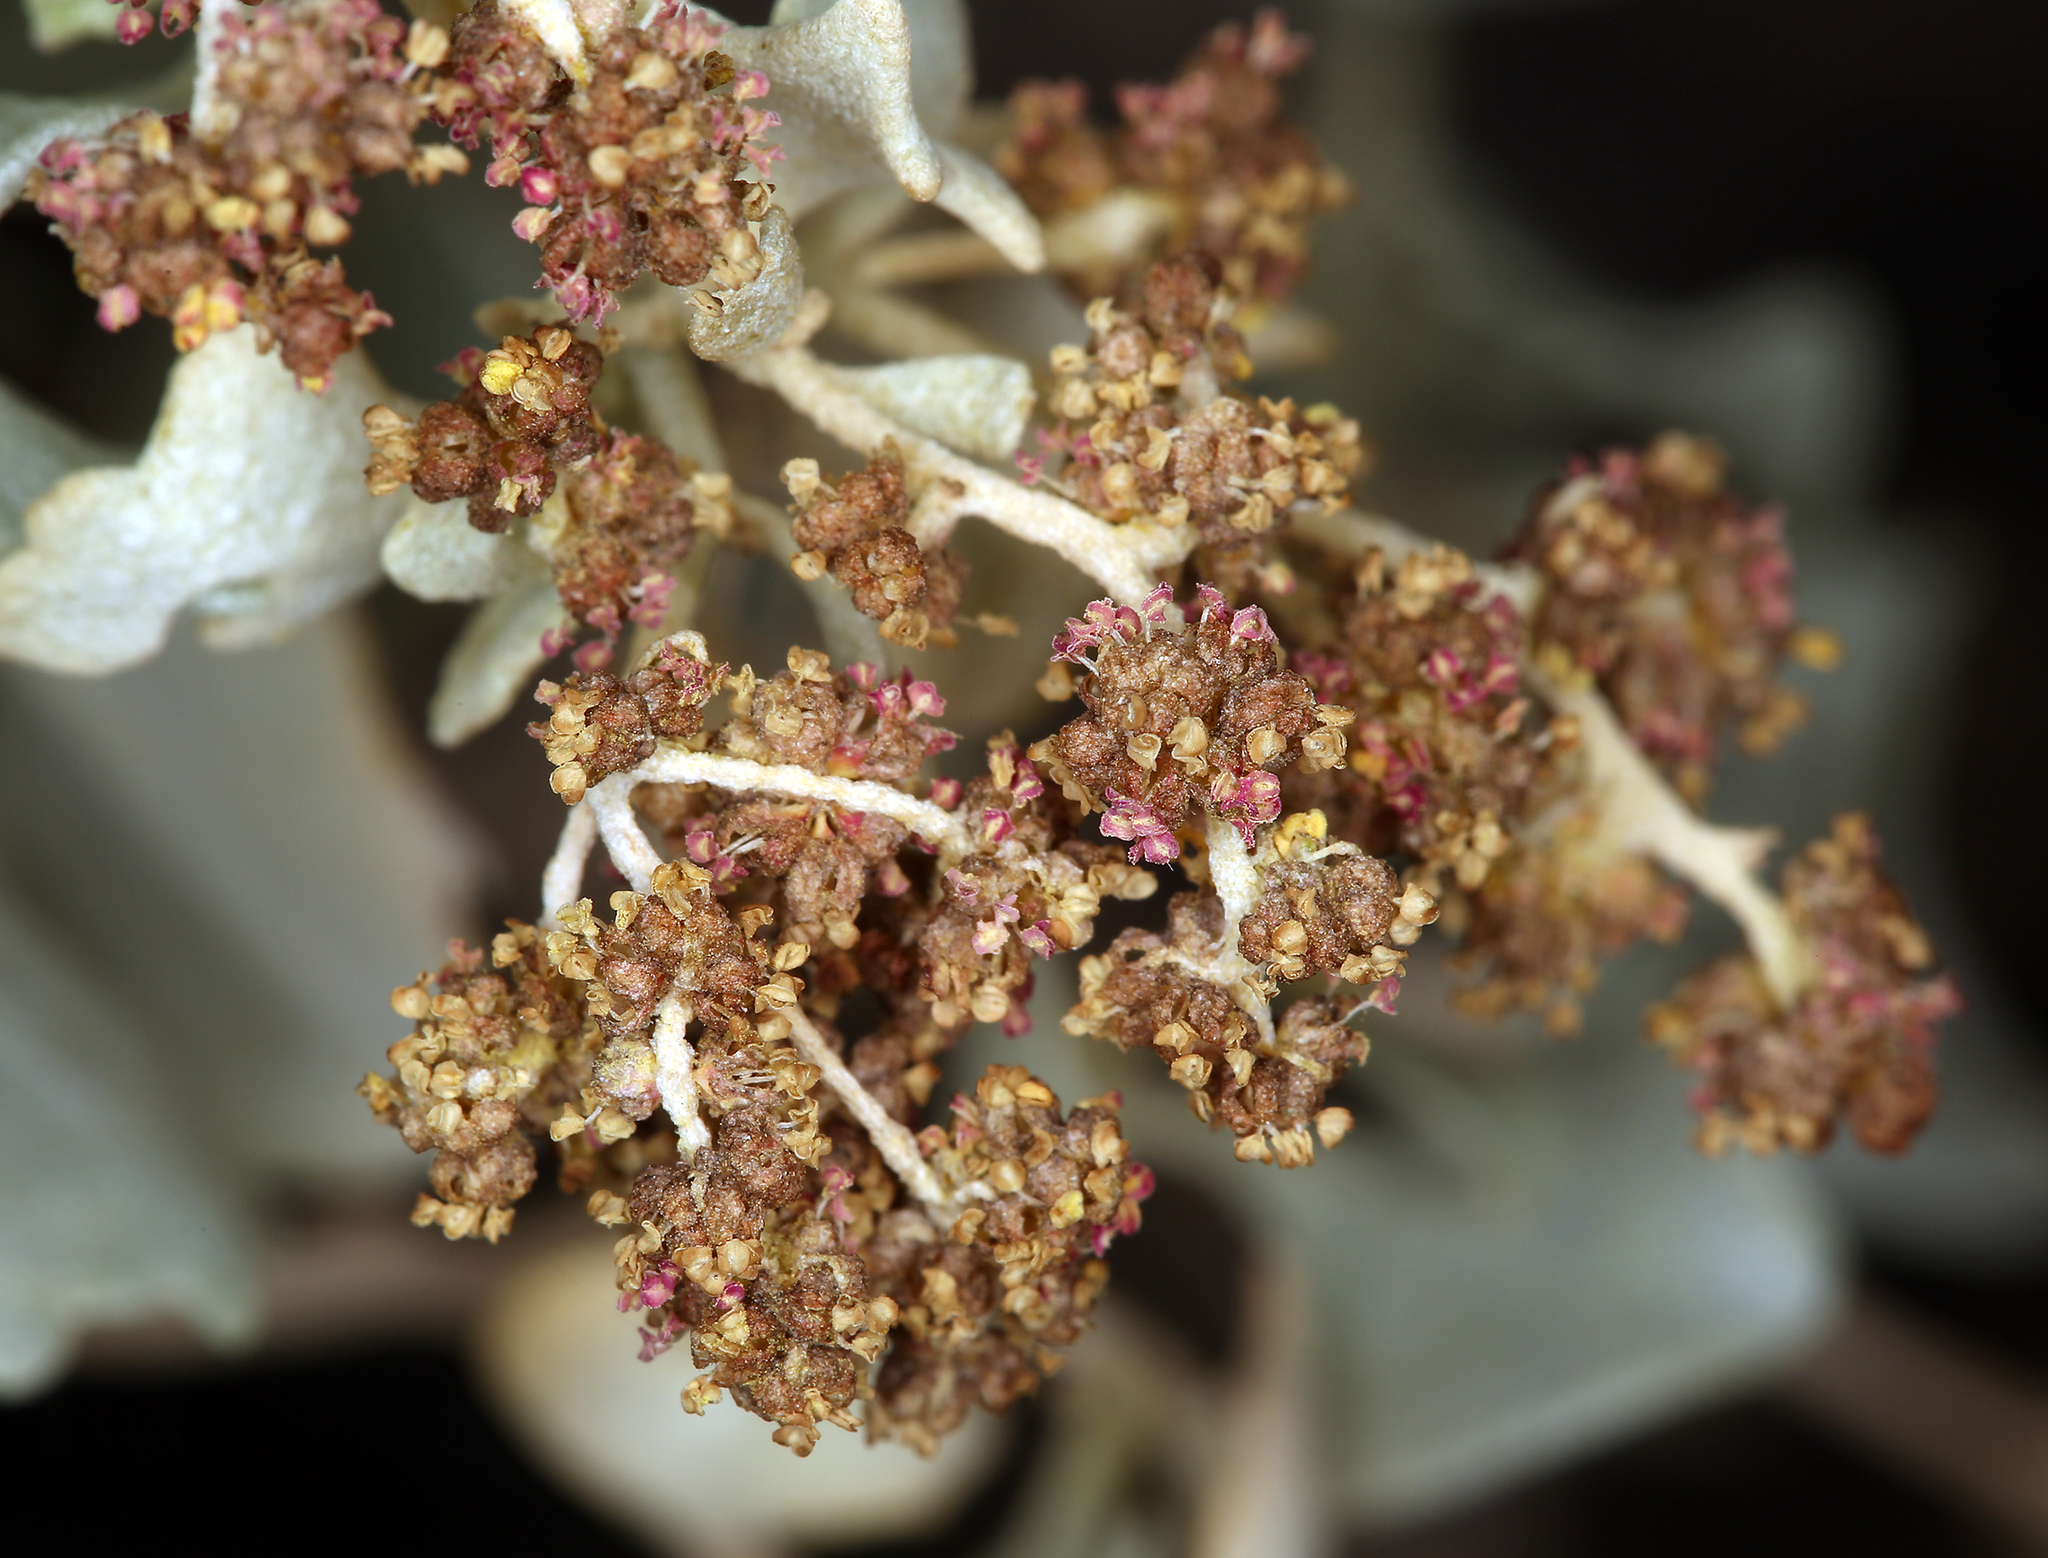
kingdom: Plantae
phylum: Tracheophyta
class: Magnoliopsida
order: Caryophyllales
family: Amaranthaceae
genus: Atriplex
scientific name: Atriplex hymenelytra
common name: Desert-holly
